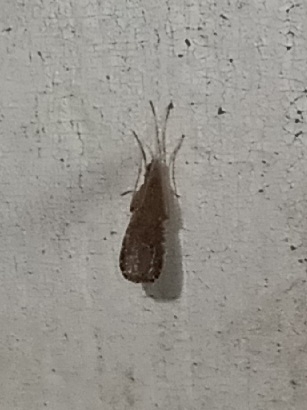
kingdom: Animalia
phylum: Arthropoda
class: Insecta
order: Diptera
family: Limoniidae
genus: Erioptera
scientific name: Erioptera tantilla
